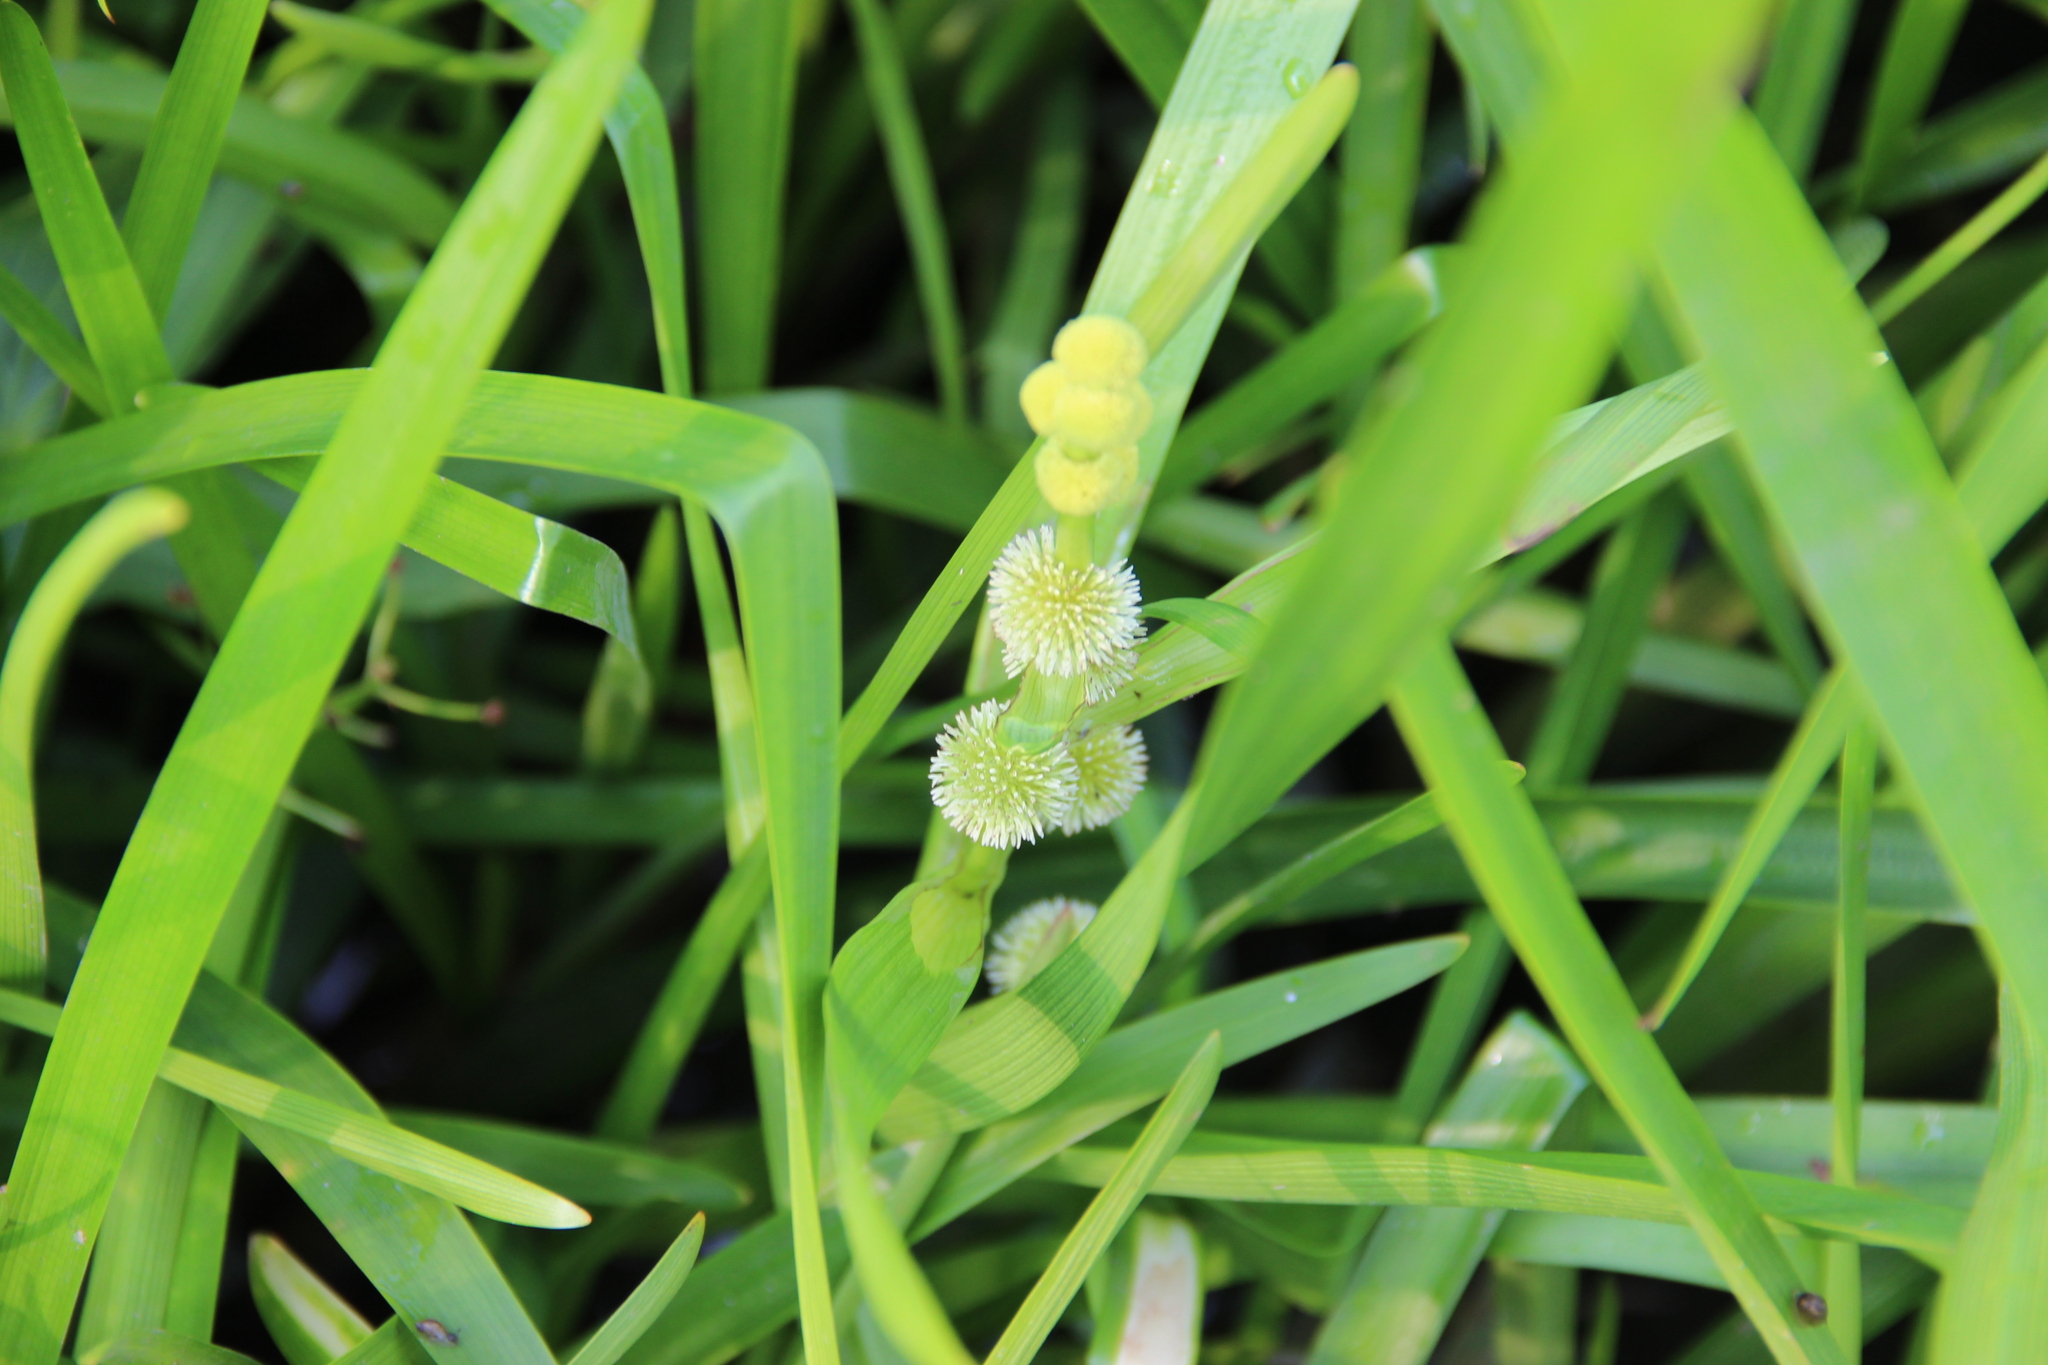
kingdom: Plantae
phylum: Tracheophyta
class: Liliopsida
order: Poales
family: Typhaceae
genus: Sparganium
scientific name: Sparganium emersum
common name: Unbranched bur-reed
